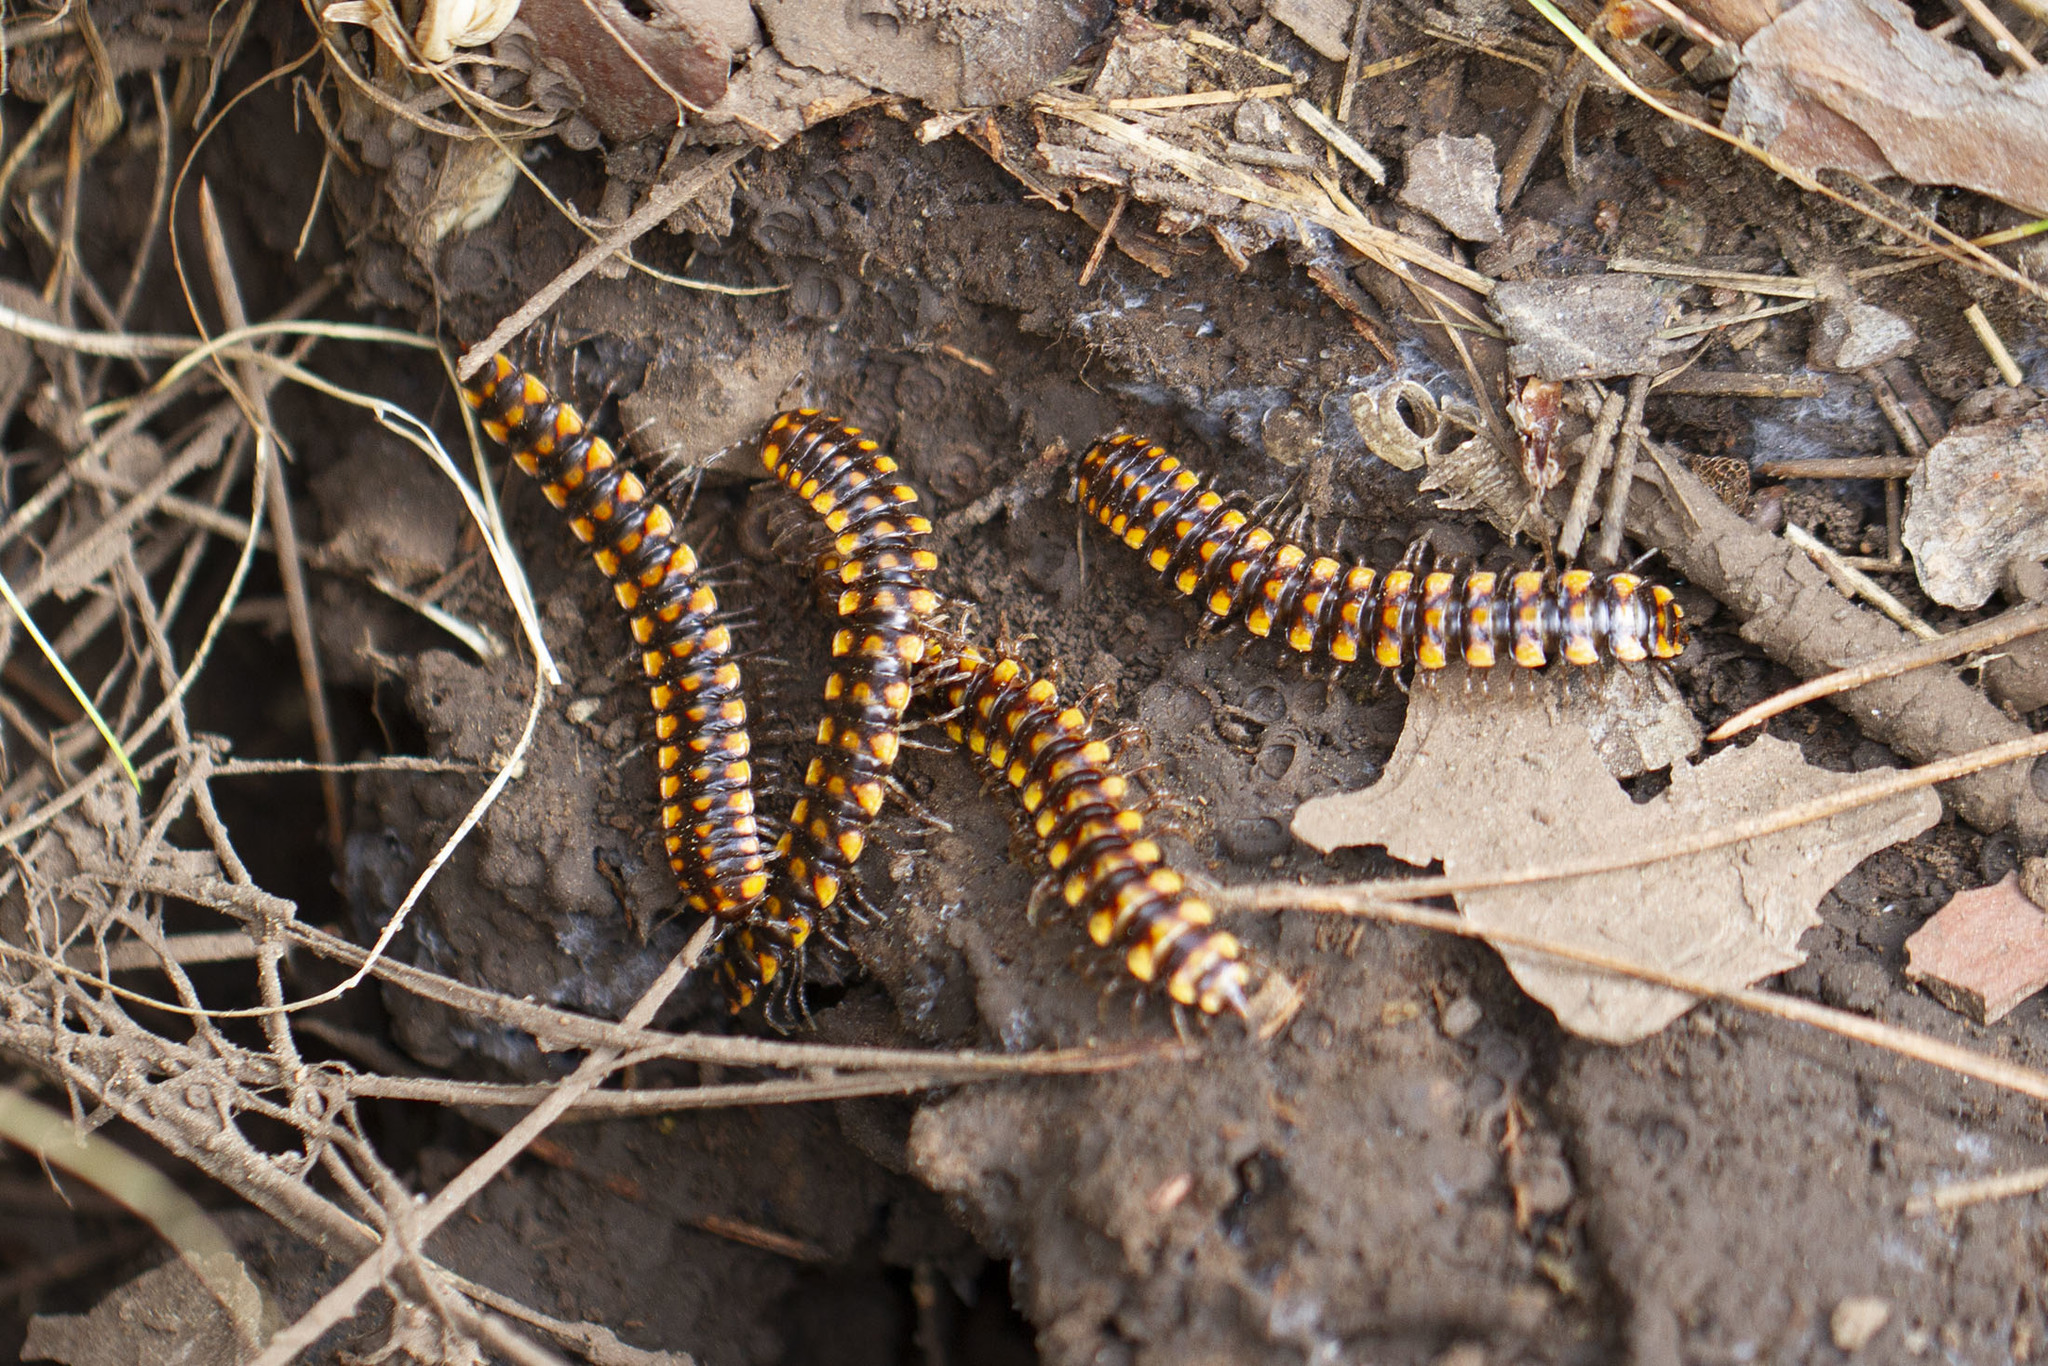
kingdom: Animalia
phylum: Arthropoda
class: Diplopoda
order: Polydesmida
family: Xystodesmidae
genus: Melaphe
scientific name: Melaphe vestita
